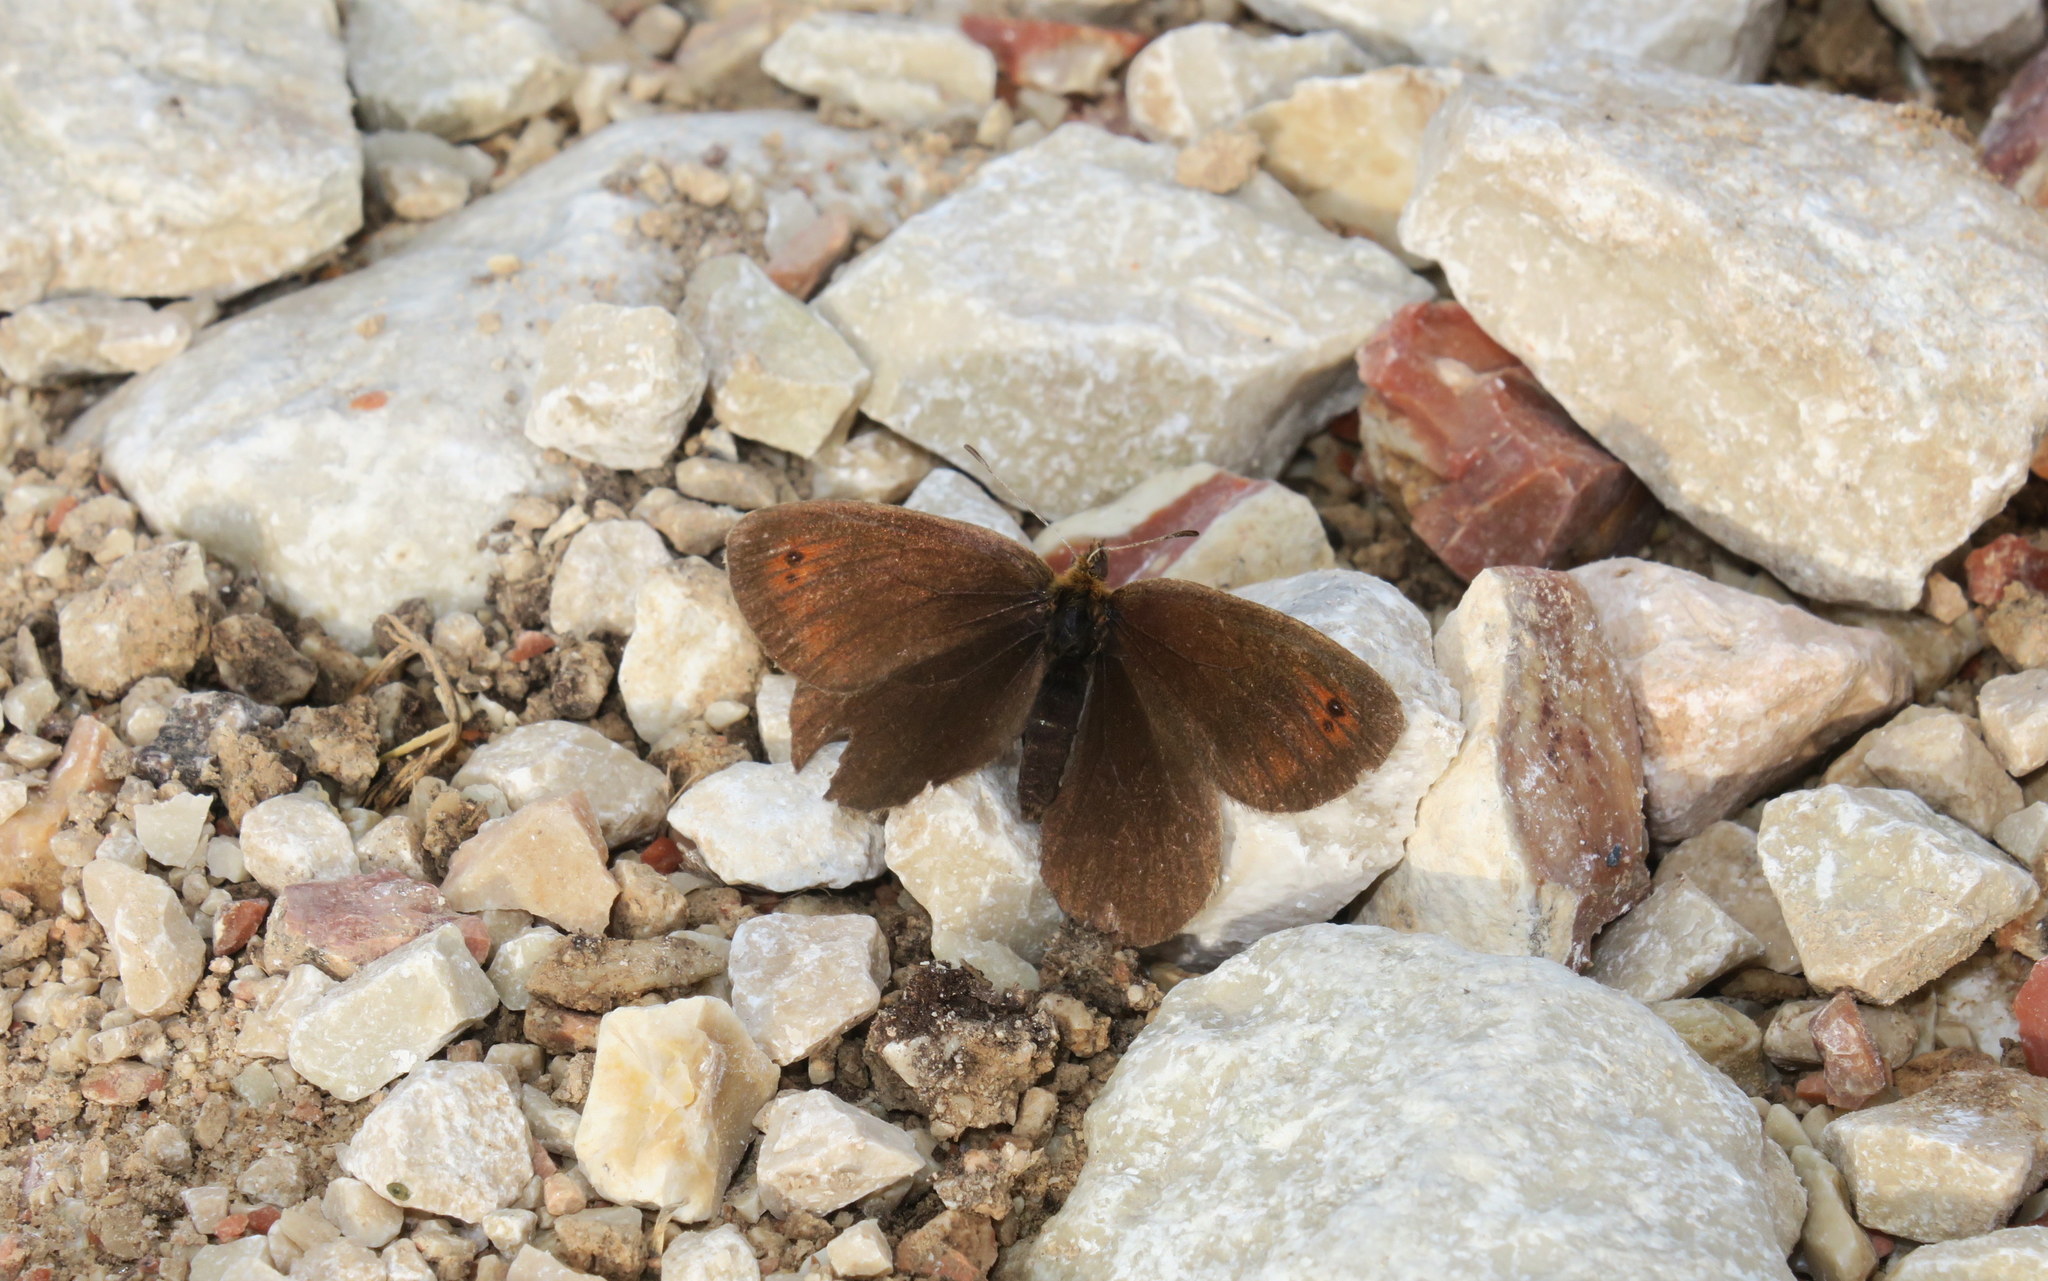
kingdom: Animalia
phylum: Arthropoda
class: Insecta
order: Lepidoptera
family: Nymphalidae
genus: Erebia
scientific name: Erebia pronoe
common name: Water ringlet
